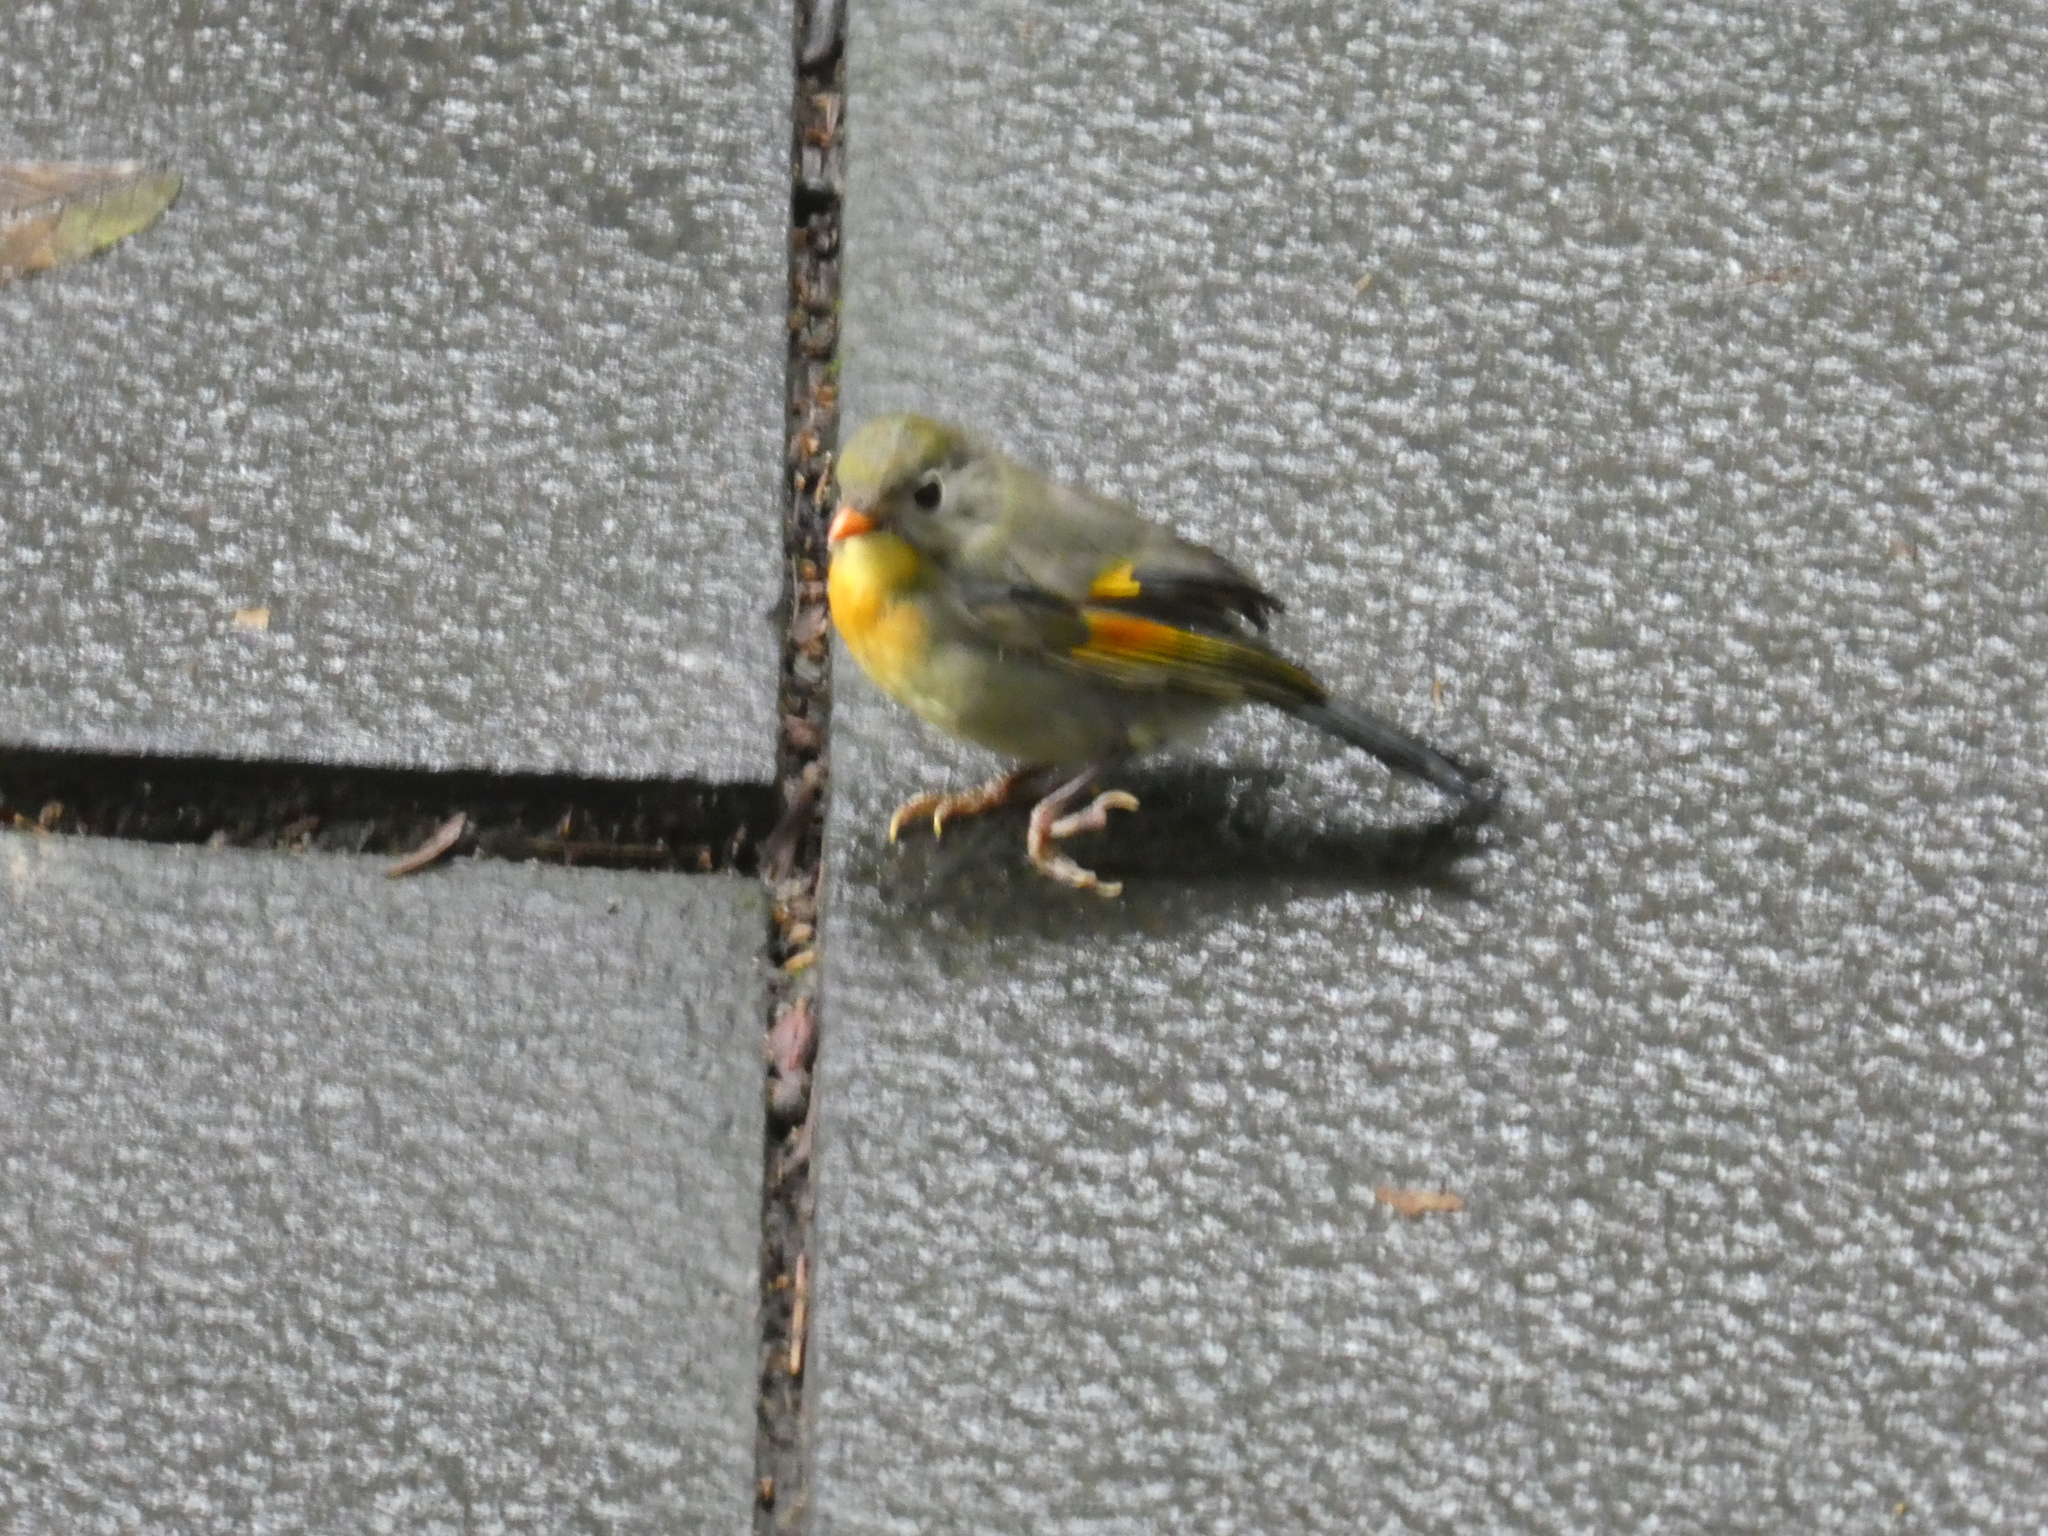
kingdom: Animalia
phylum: Chordata
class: Aves
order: Passeriformes
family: Leiothrichidae
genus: Leiothrix
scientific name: Leiothrix lutea
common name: Red-billed leiothrix
